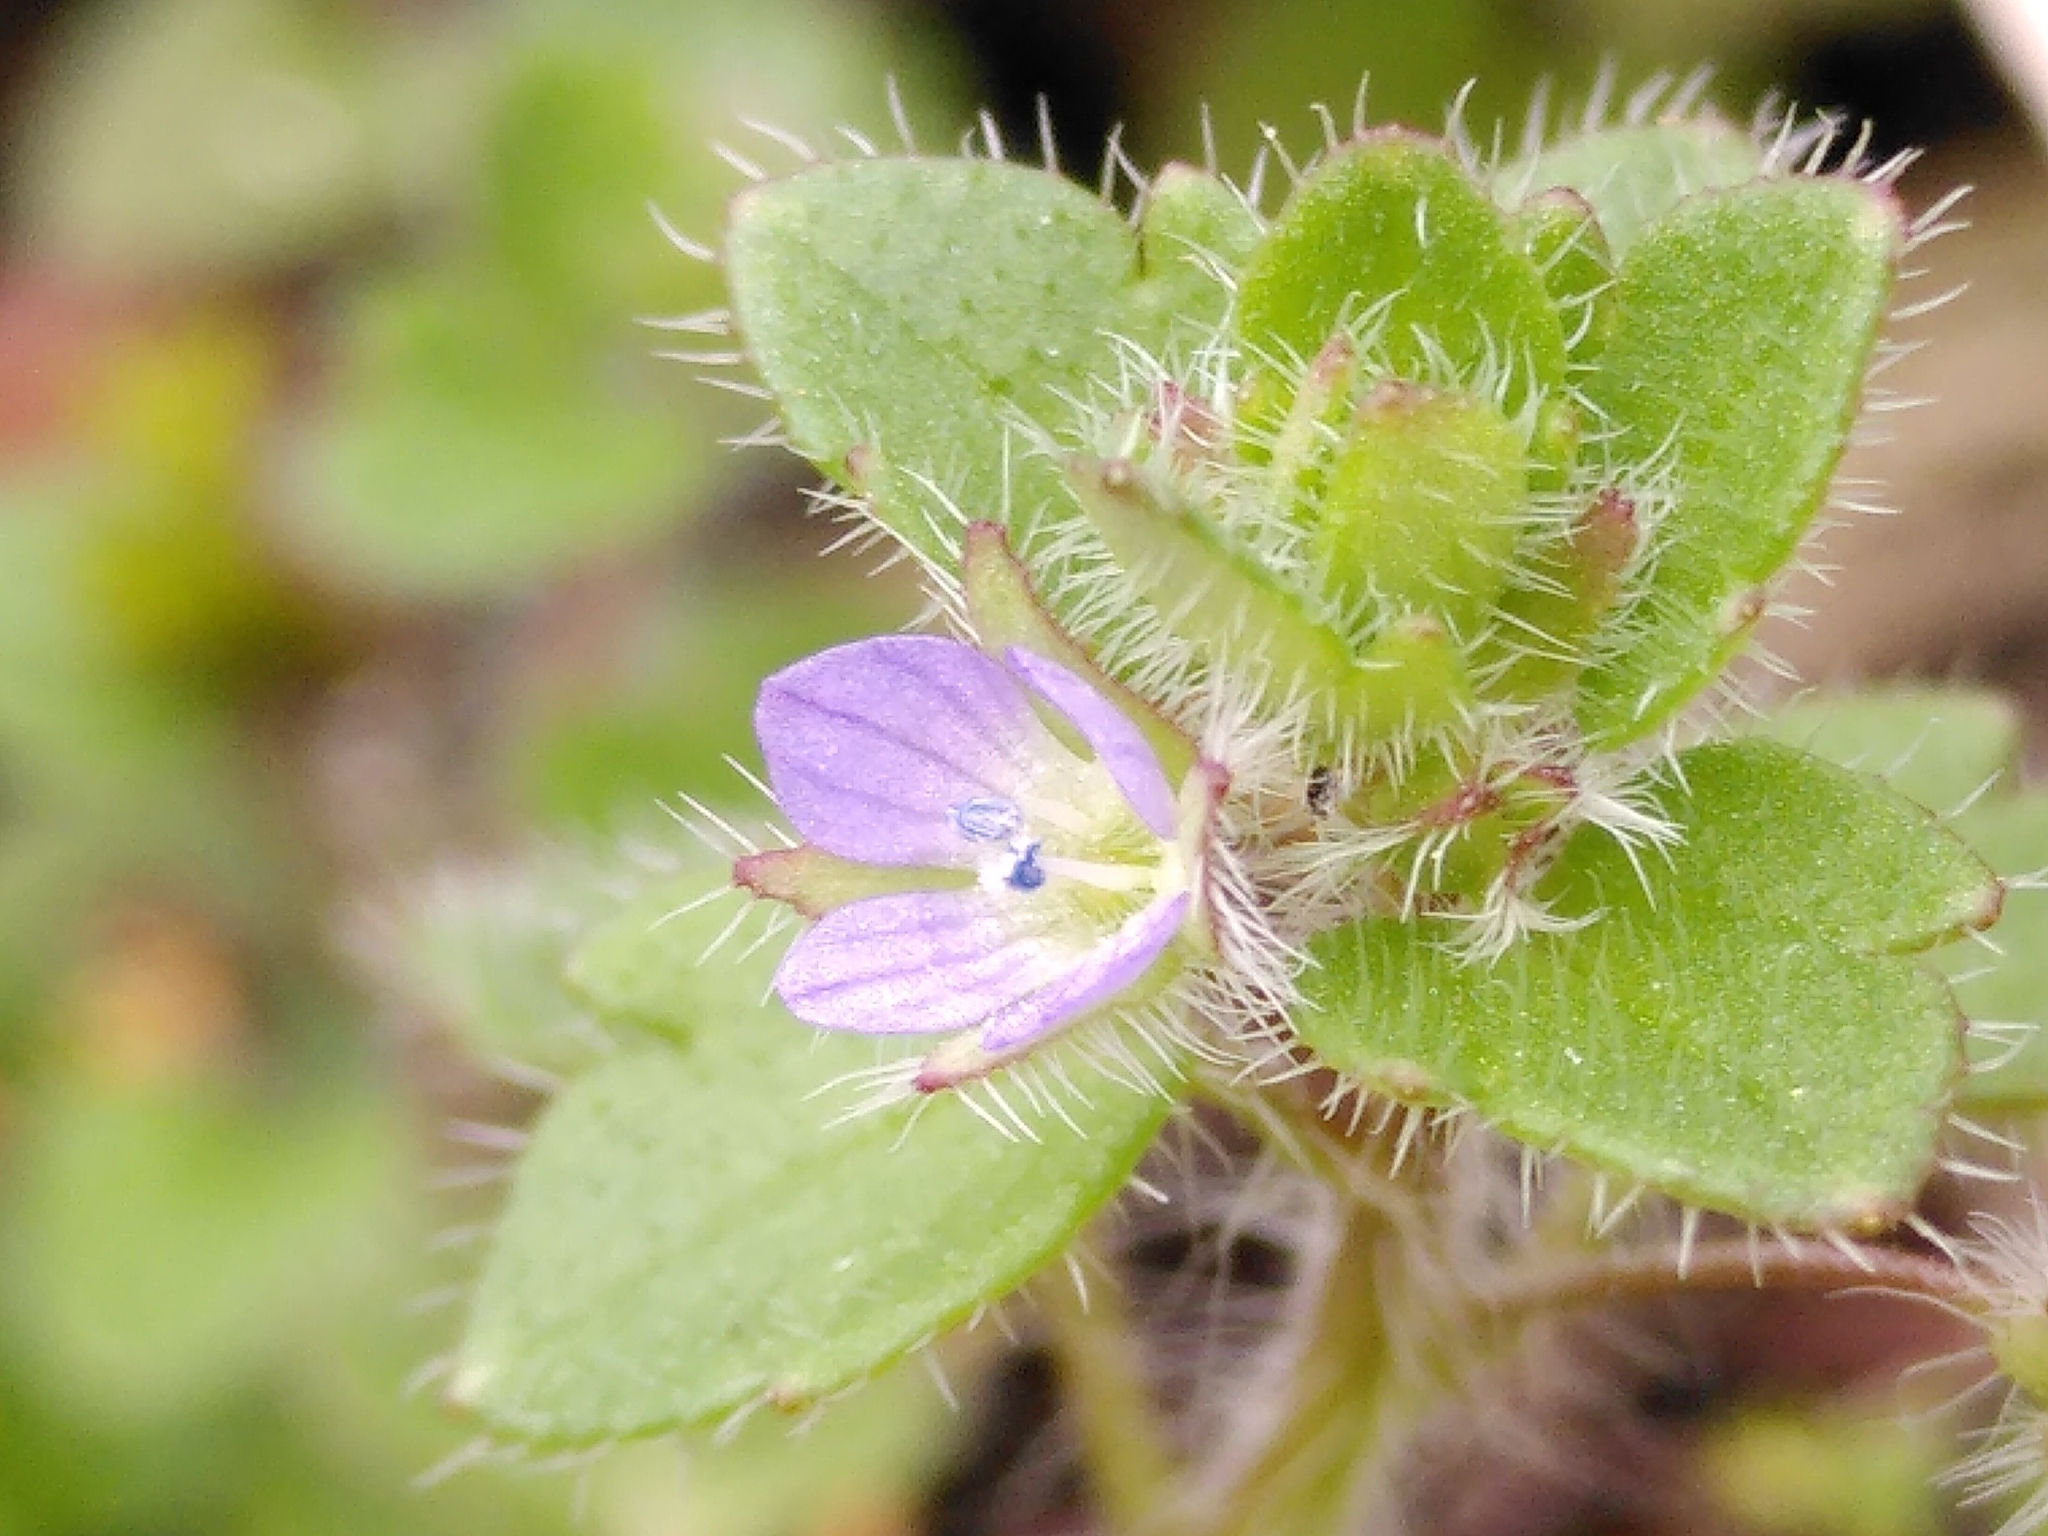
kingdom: Plantae
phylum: Tracheophyta
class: Magnoliopsida
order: Lamiales
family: Plantaginaceae
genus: Veronica
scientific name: Veronica hederifolia
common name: Ivy-leaved speedwell
